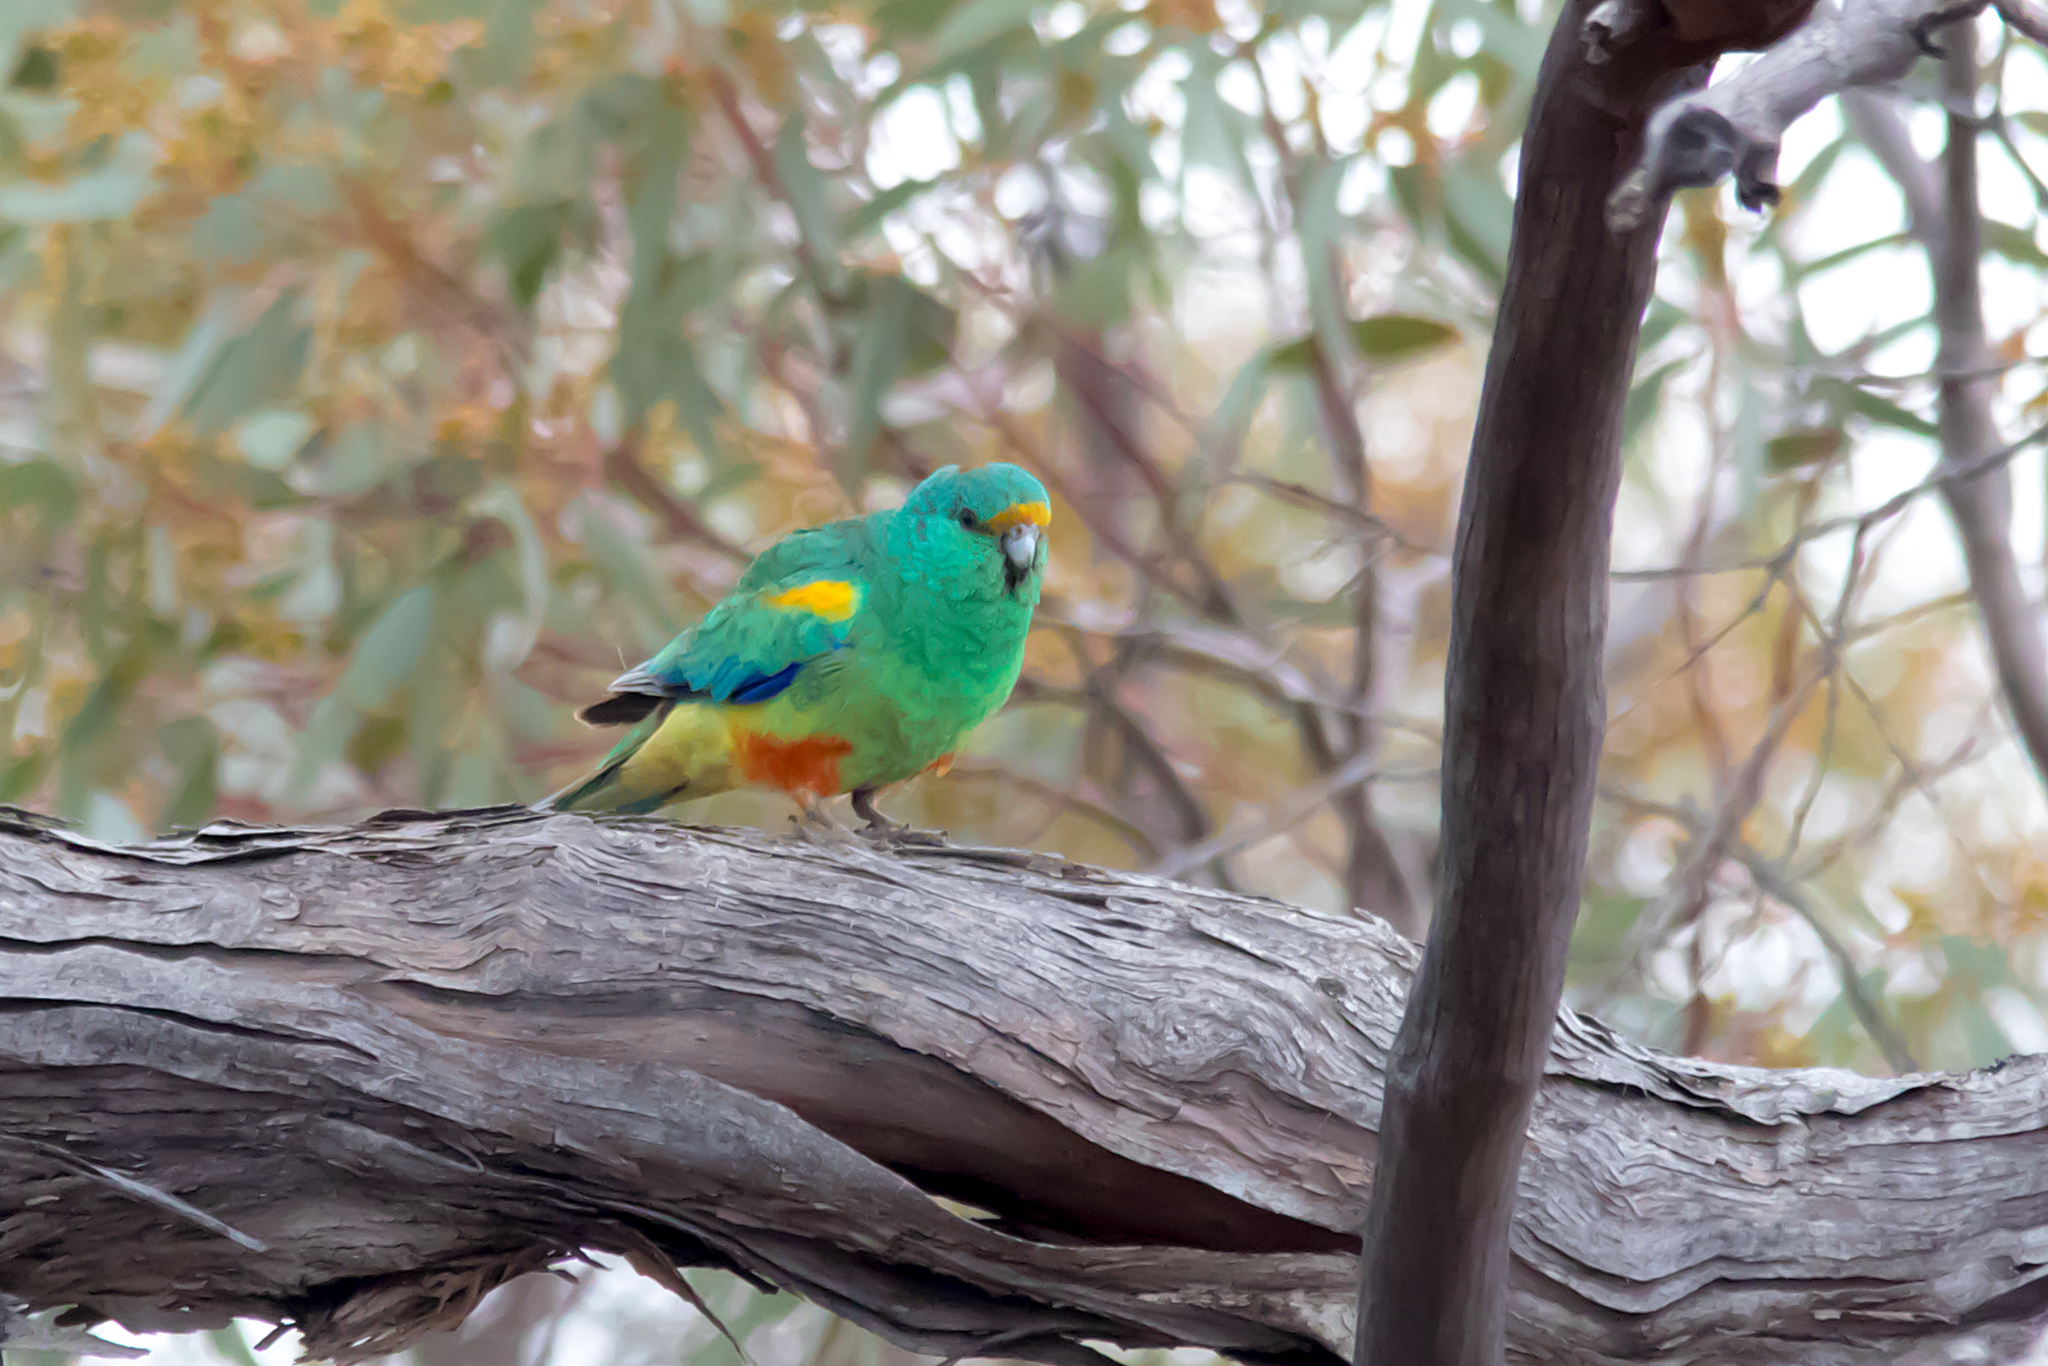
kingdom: Animalia
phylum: Chordata
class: Aves
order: Psittaciformes
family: Psittaculidae
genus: Psephotellus
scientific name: Psephotellus varius
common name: Mulga parrot
